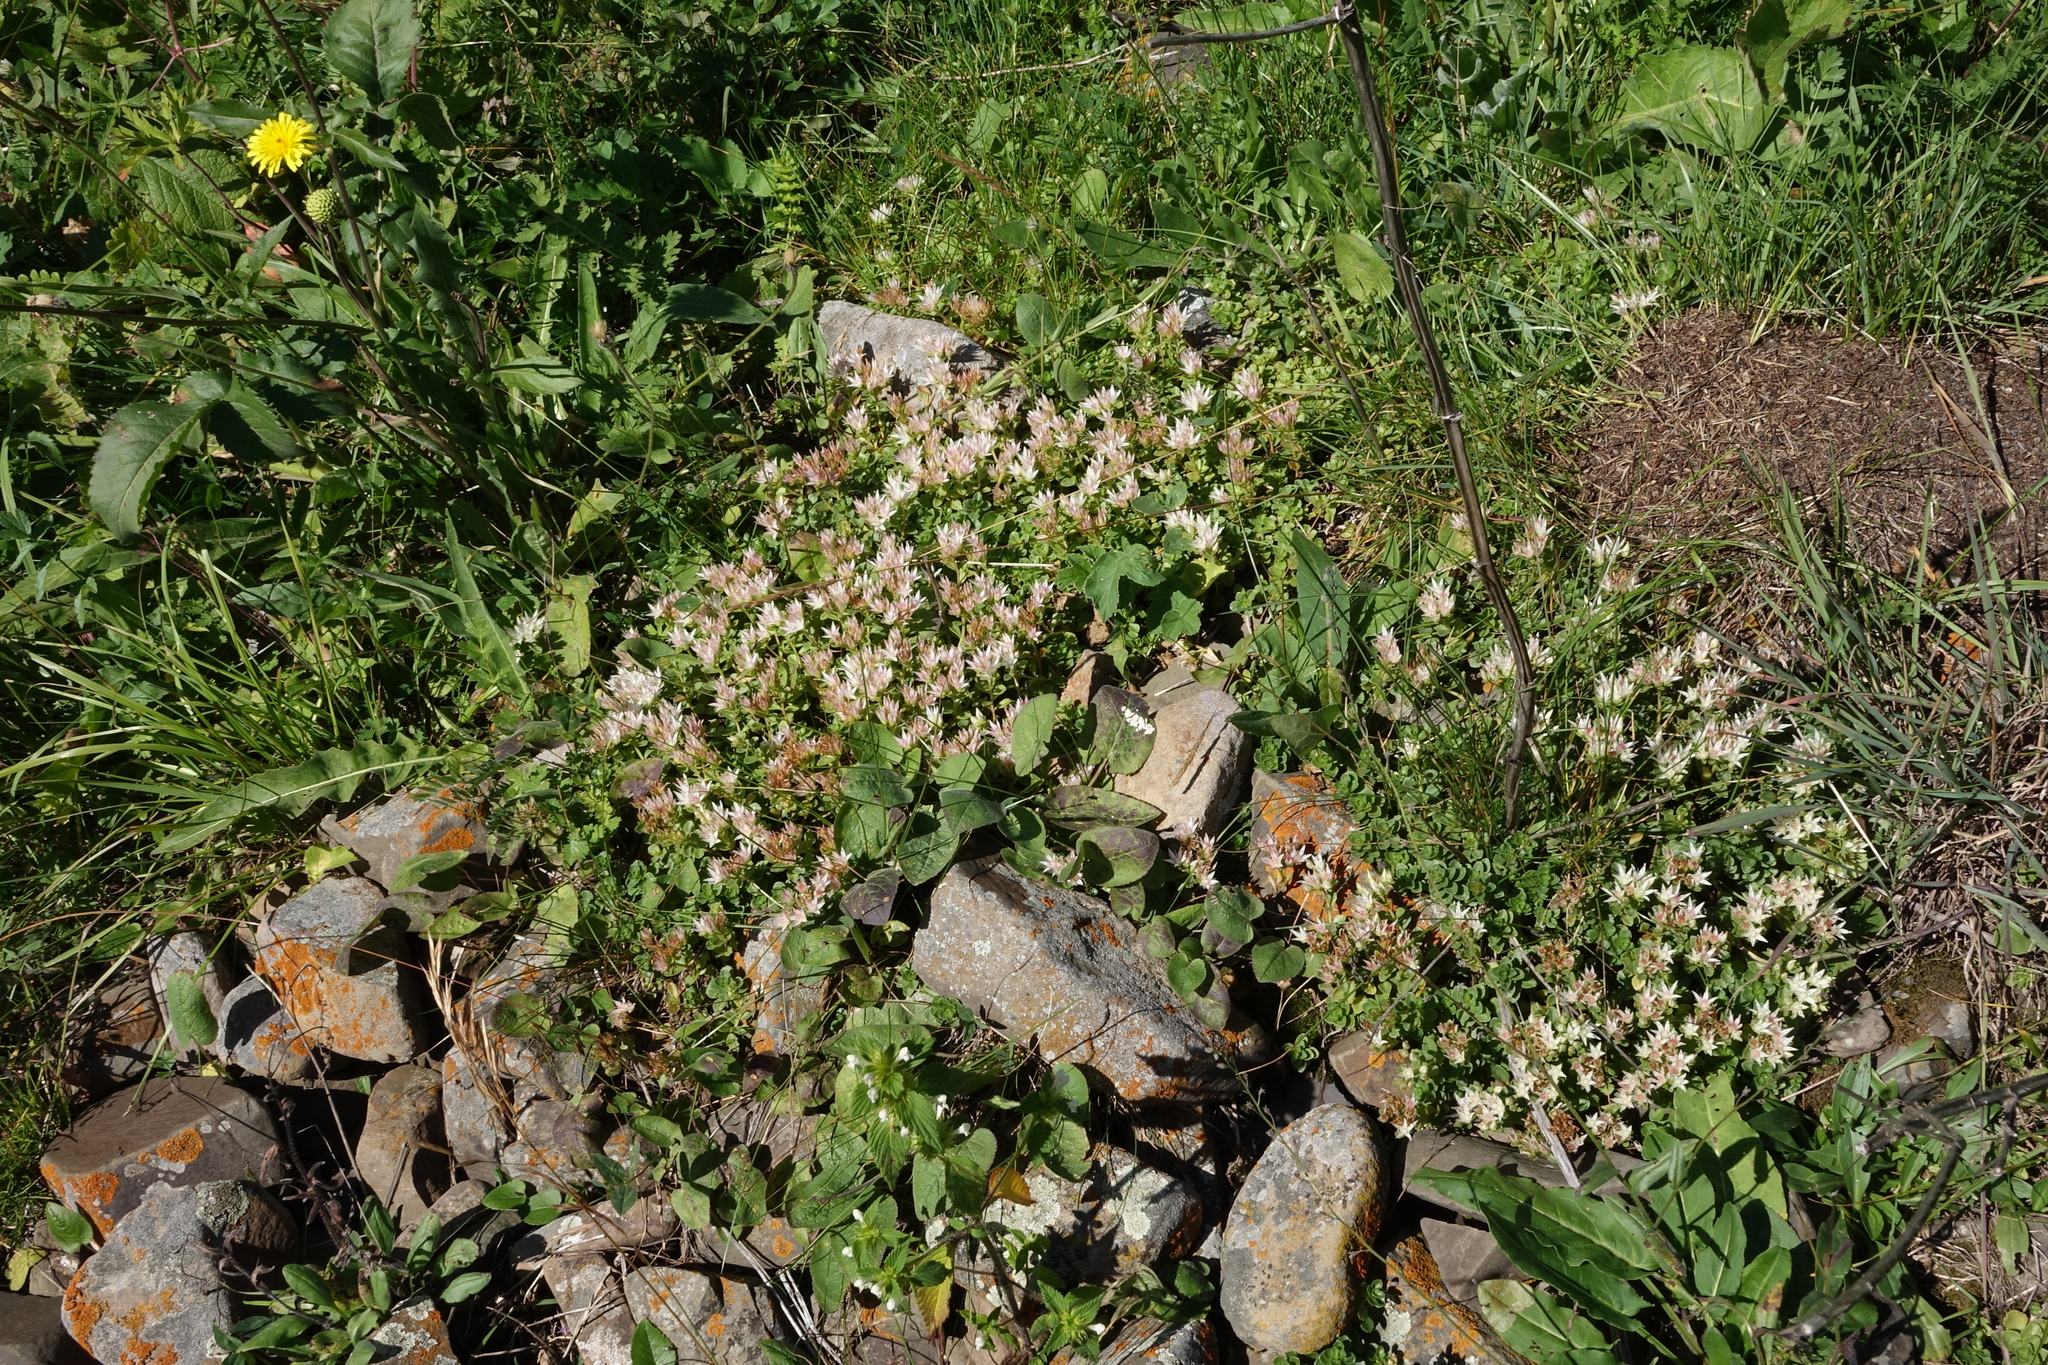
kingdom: Plantae
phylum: Tracheophyta
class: Magnoliopsida
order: Saxifragales
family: Crassulaceae
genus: Phedimus
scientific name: Phedimus spurius
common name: Caucasian stonecrop
